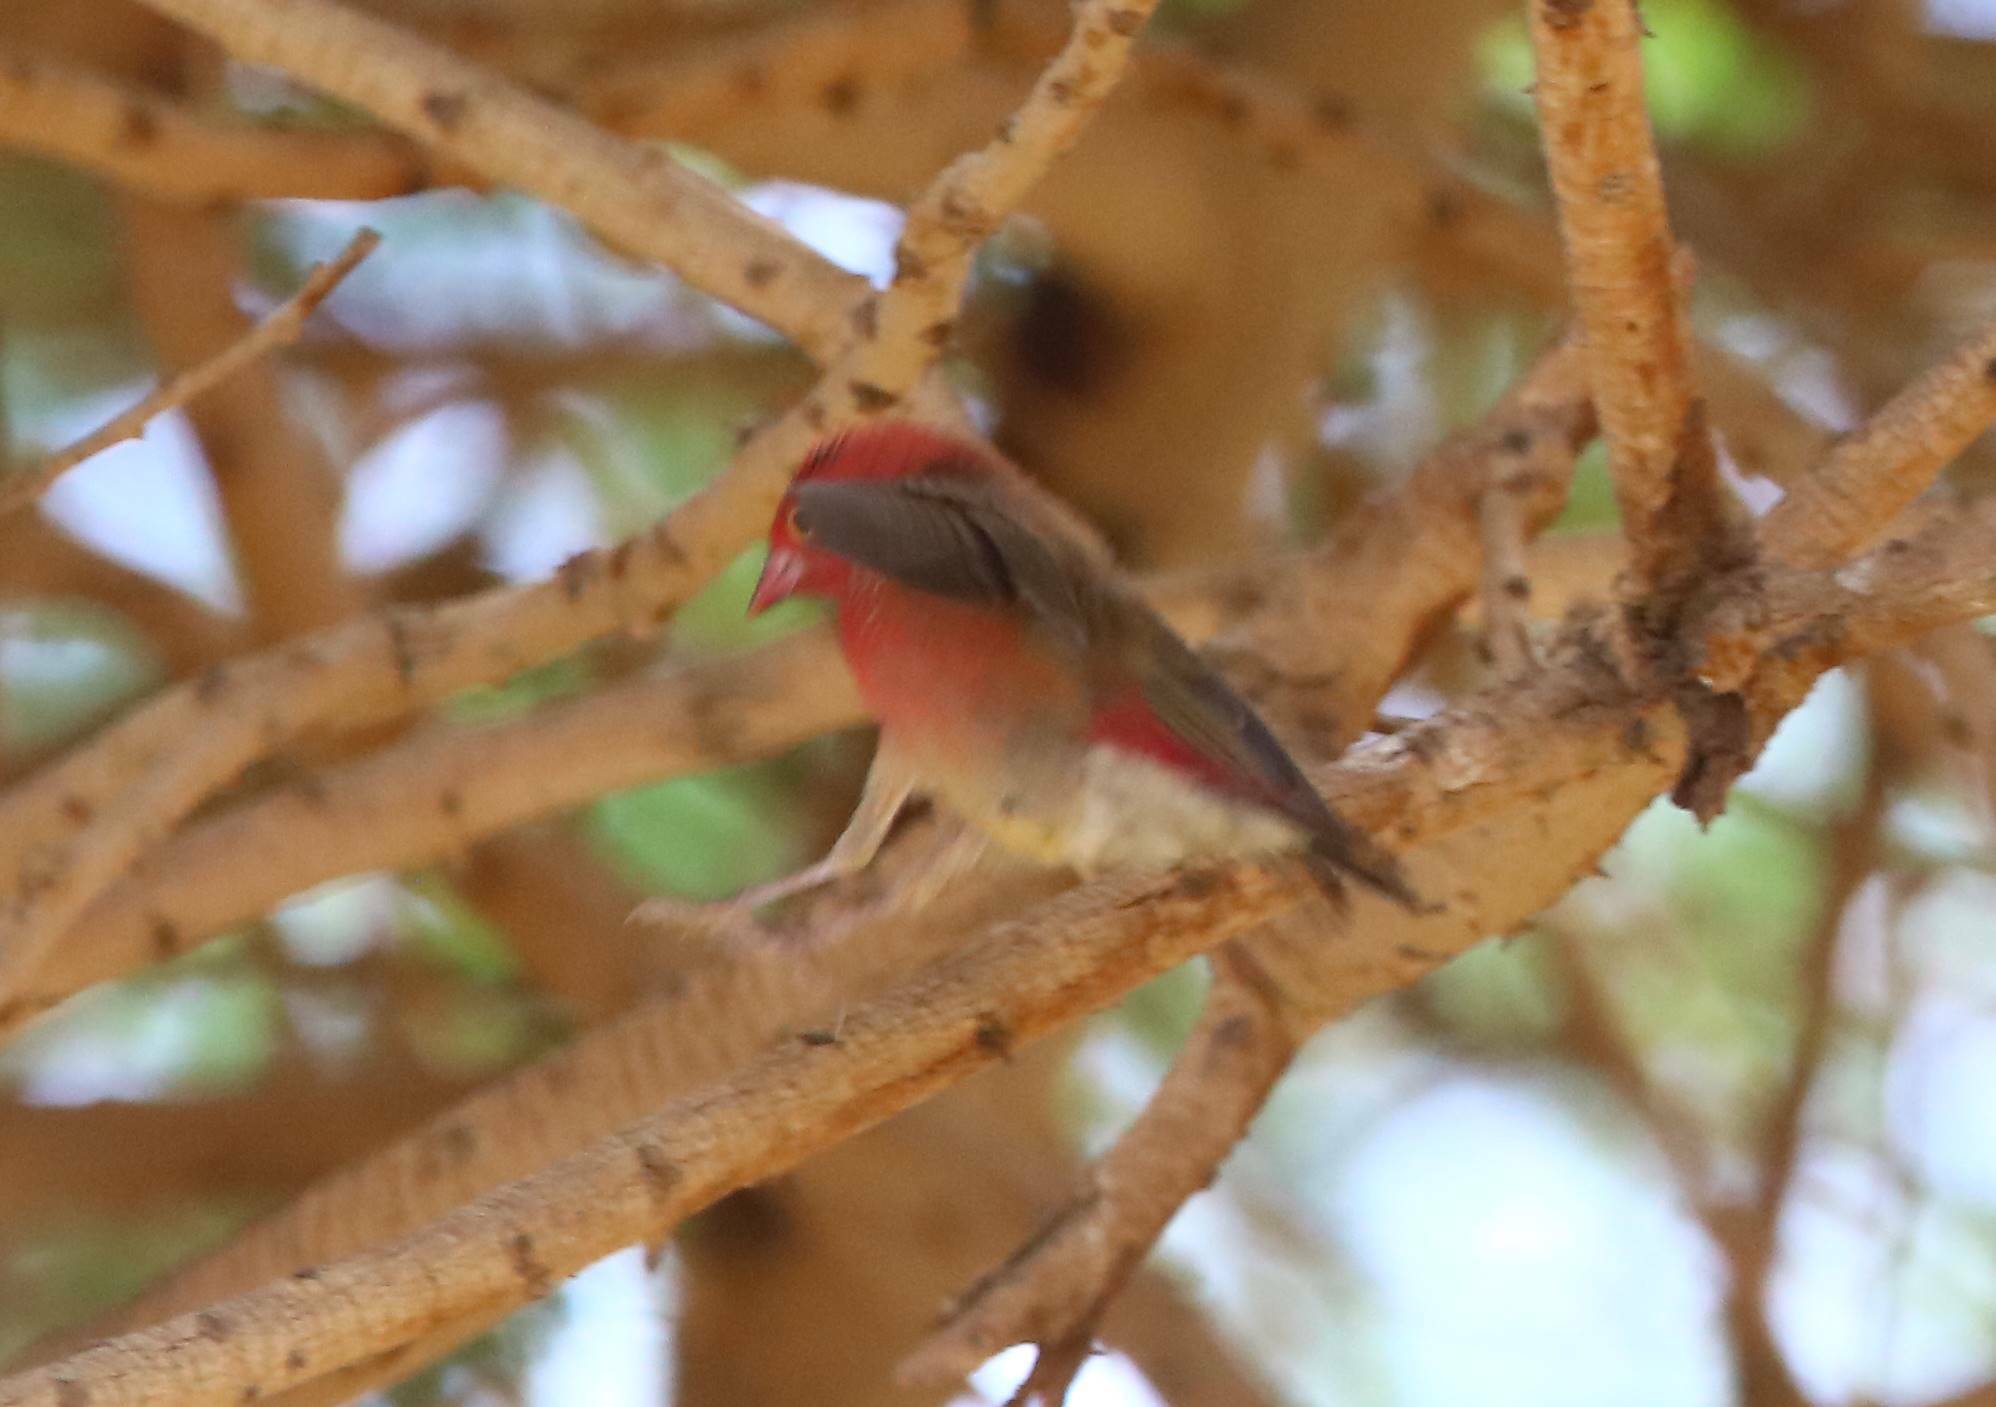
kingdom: Animalia
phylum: Chordata
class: Aves
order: Passeriformes
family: Estrildidae
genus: Lagonosticta
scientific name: Lagonosticta senegala
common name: Red-billed firefinch
